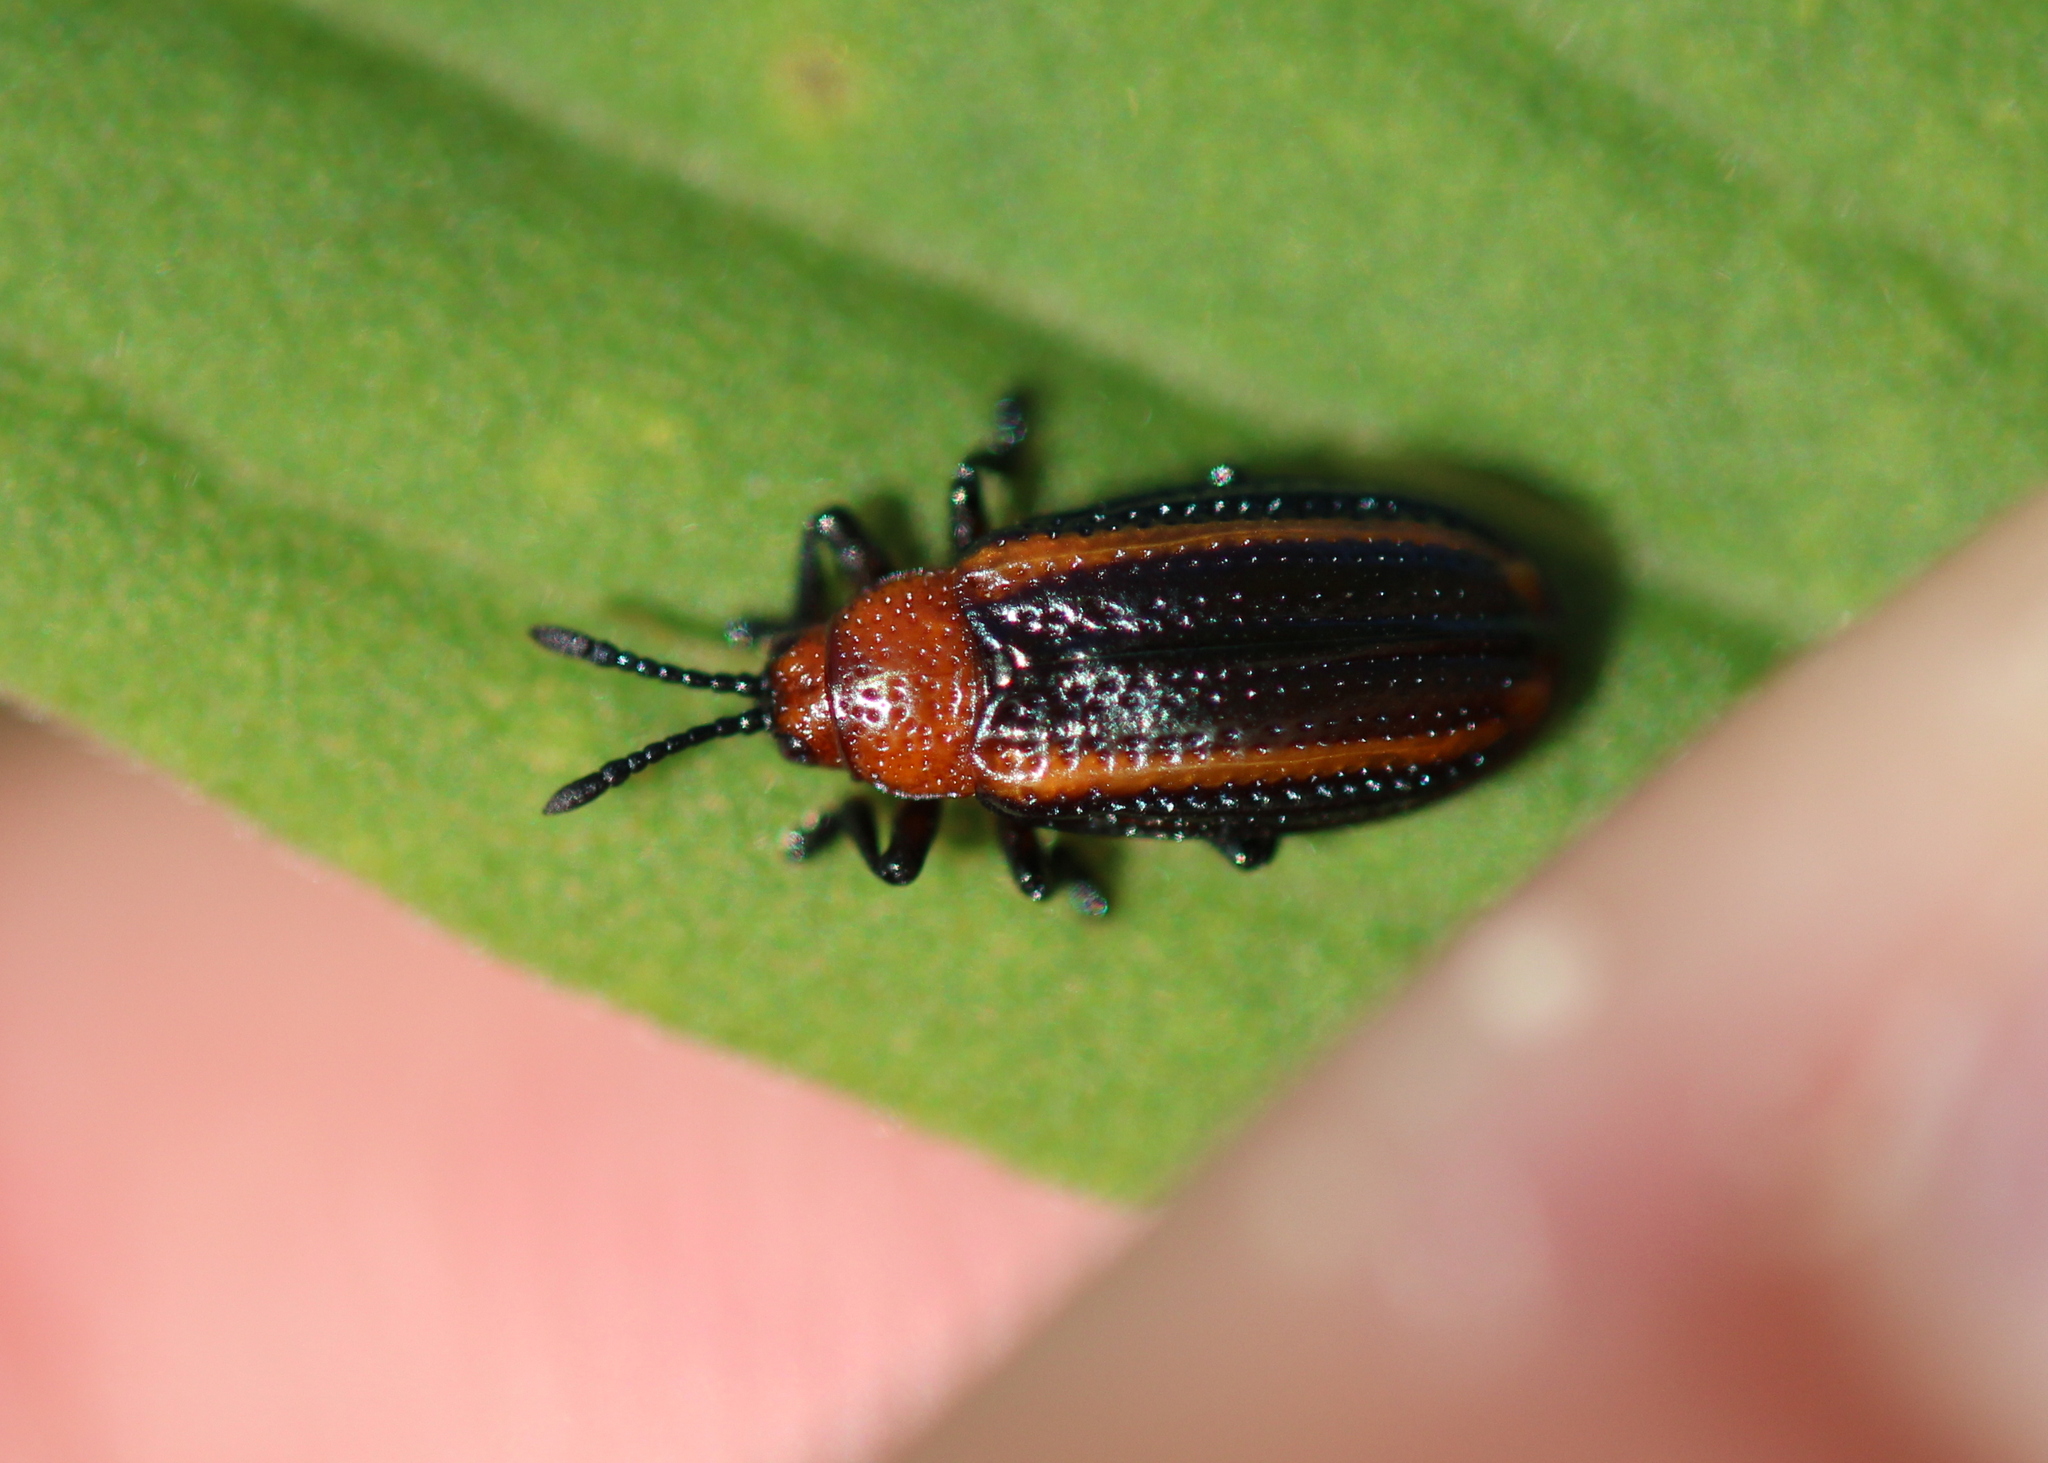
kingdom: Animalia
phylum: Arthropoda
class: Insecta
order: Coleoptera
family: Chrysomelidae
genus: Microrhopala
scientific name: Microrhopala vittata
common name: Goldenrod leaf miner beetle
